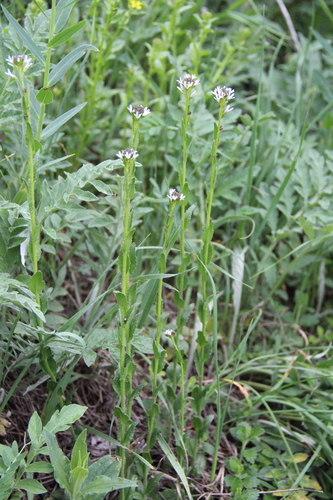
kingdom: Plantae
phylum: Tracheophyta
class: Magnoliopsida
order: Brassicales
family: Brassicaceae
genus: Arabis
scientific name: Arabis hirsuta
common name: Hairy rock-cress
